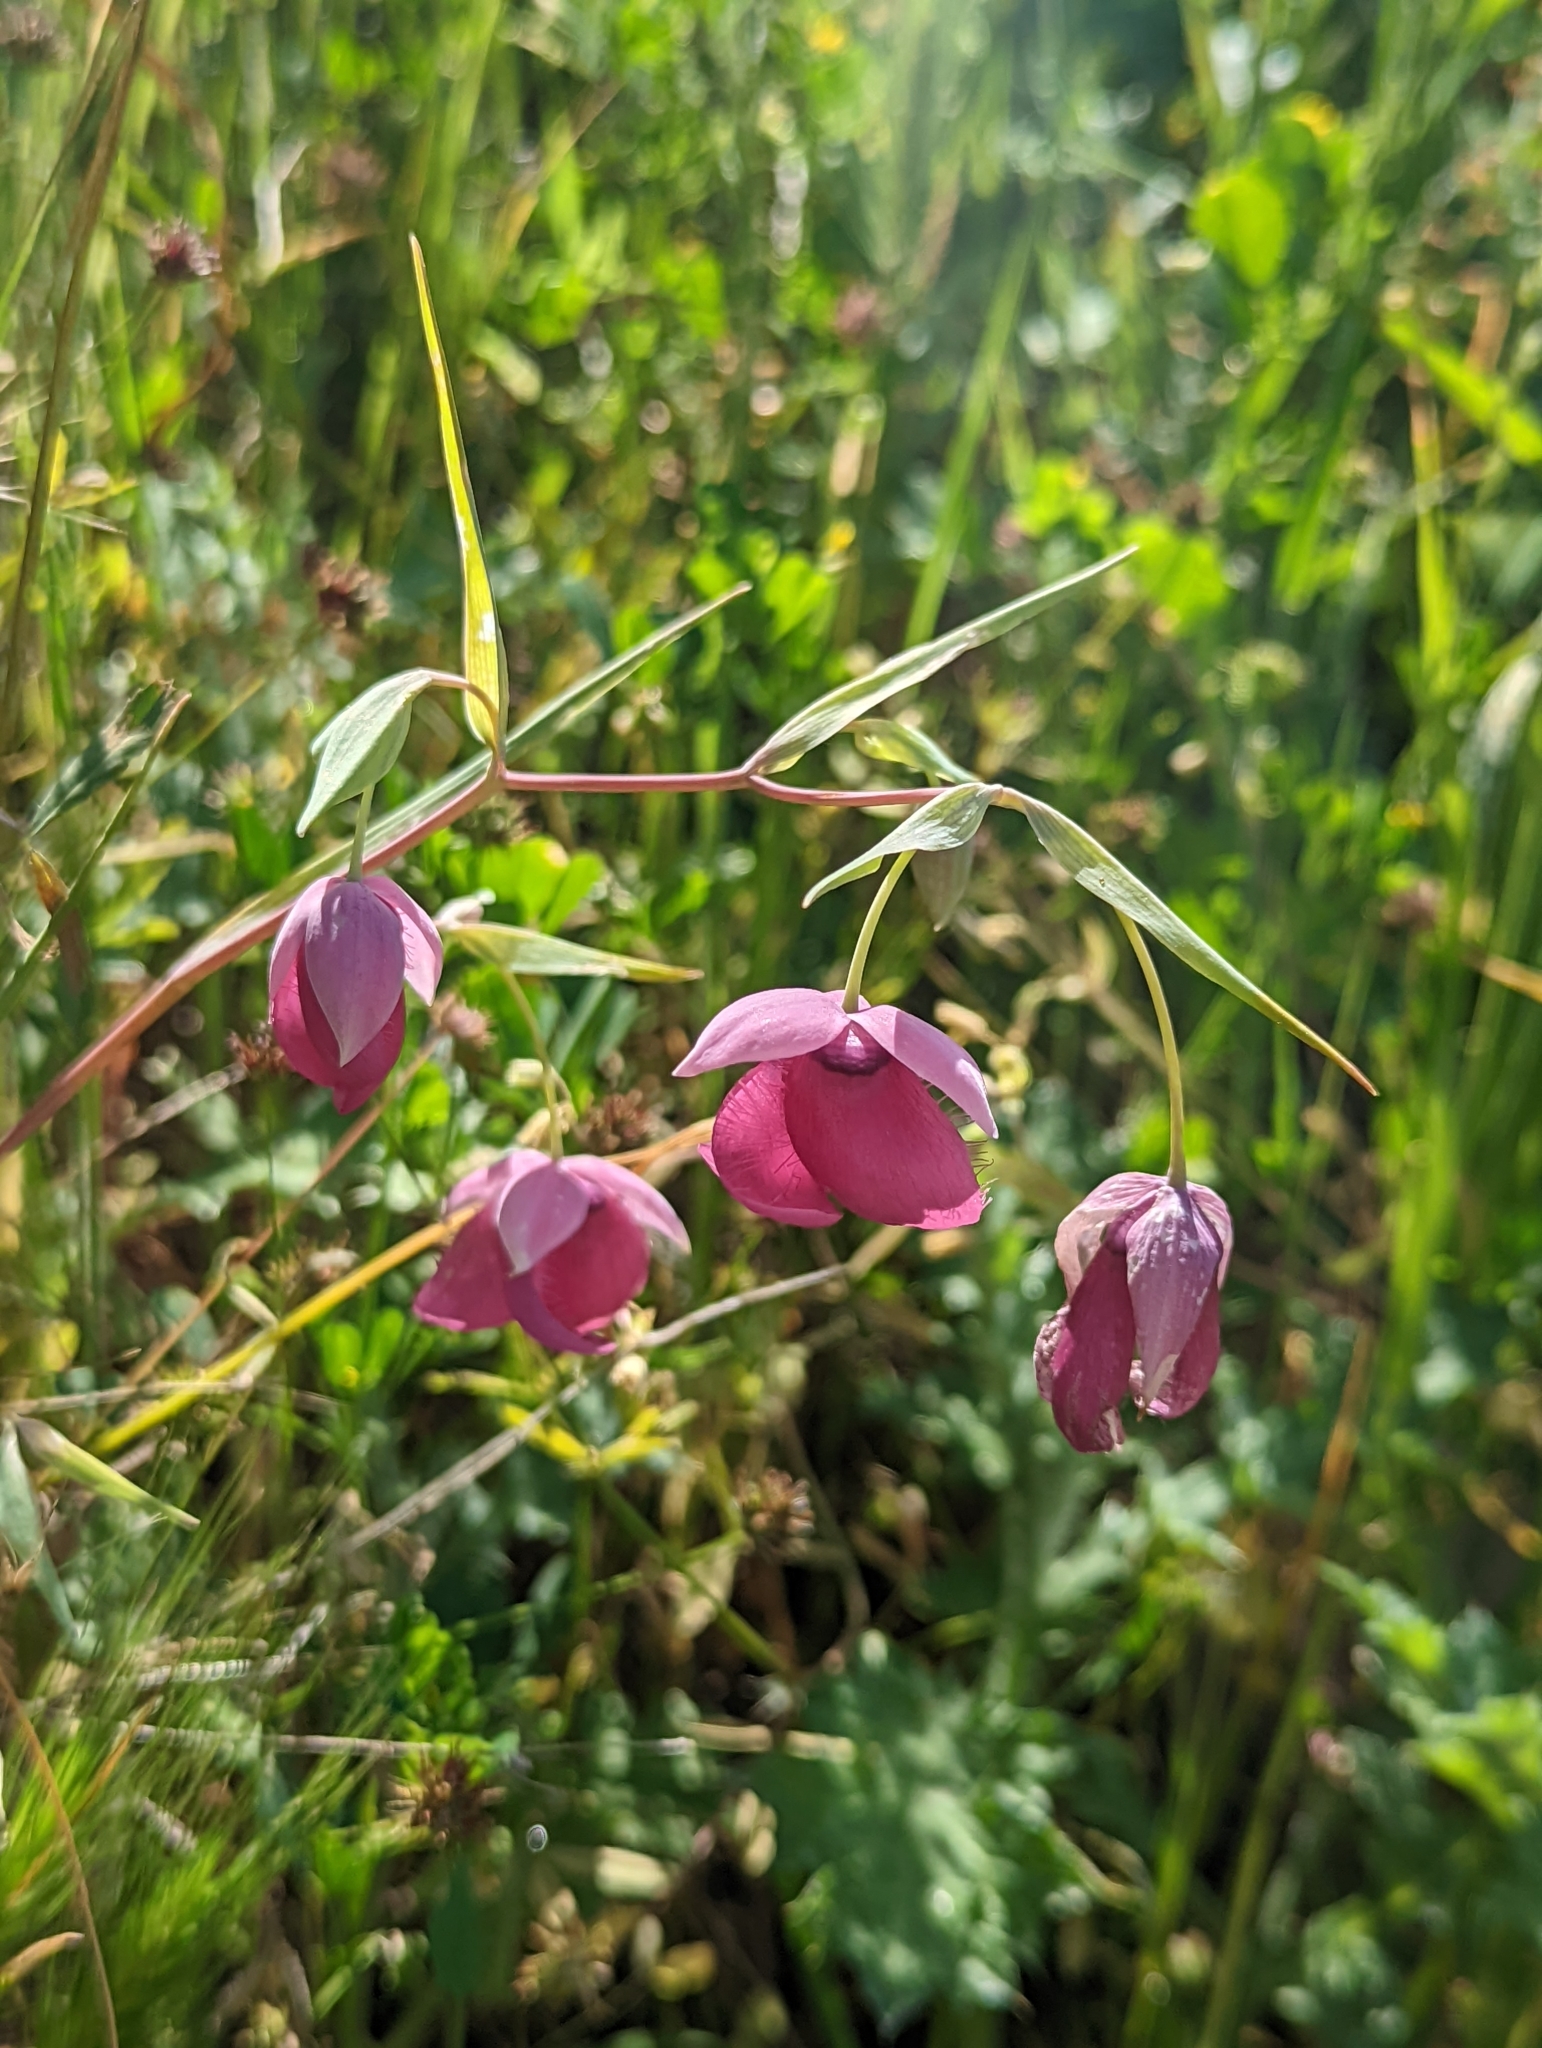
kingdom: Plantae
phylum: Tracheophyta
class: Liliopsida
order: Liliales
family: Liliaceae
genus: Calochortus
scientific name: Calochortus amoenus
